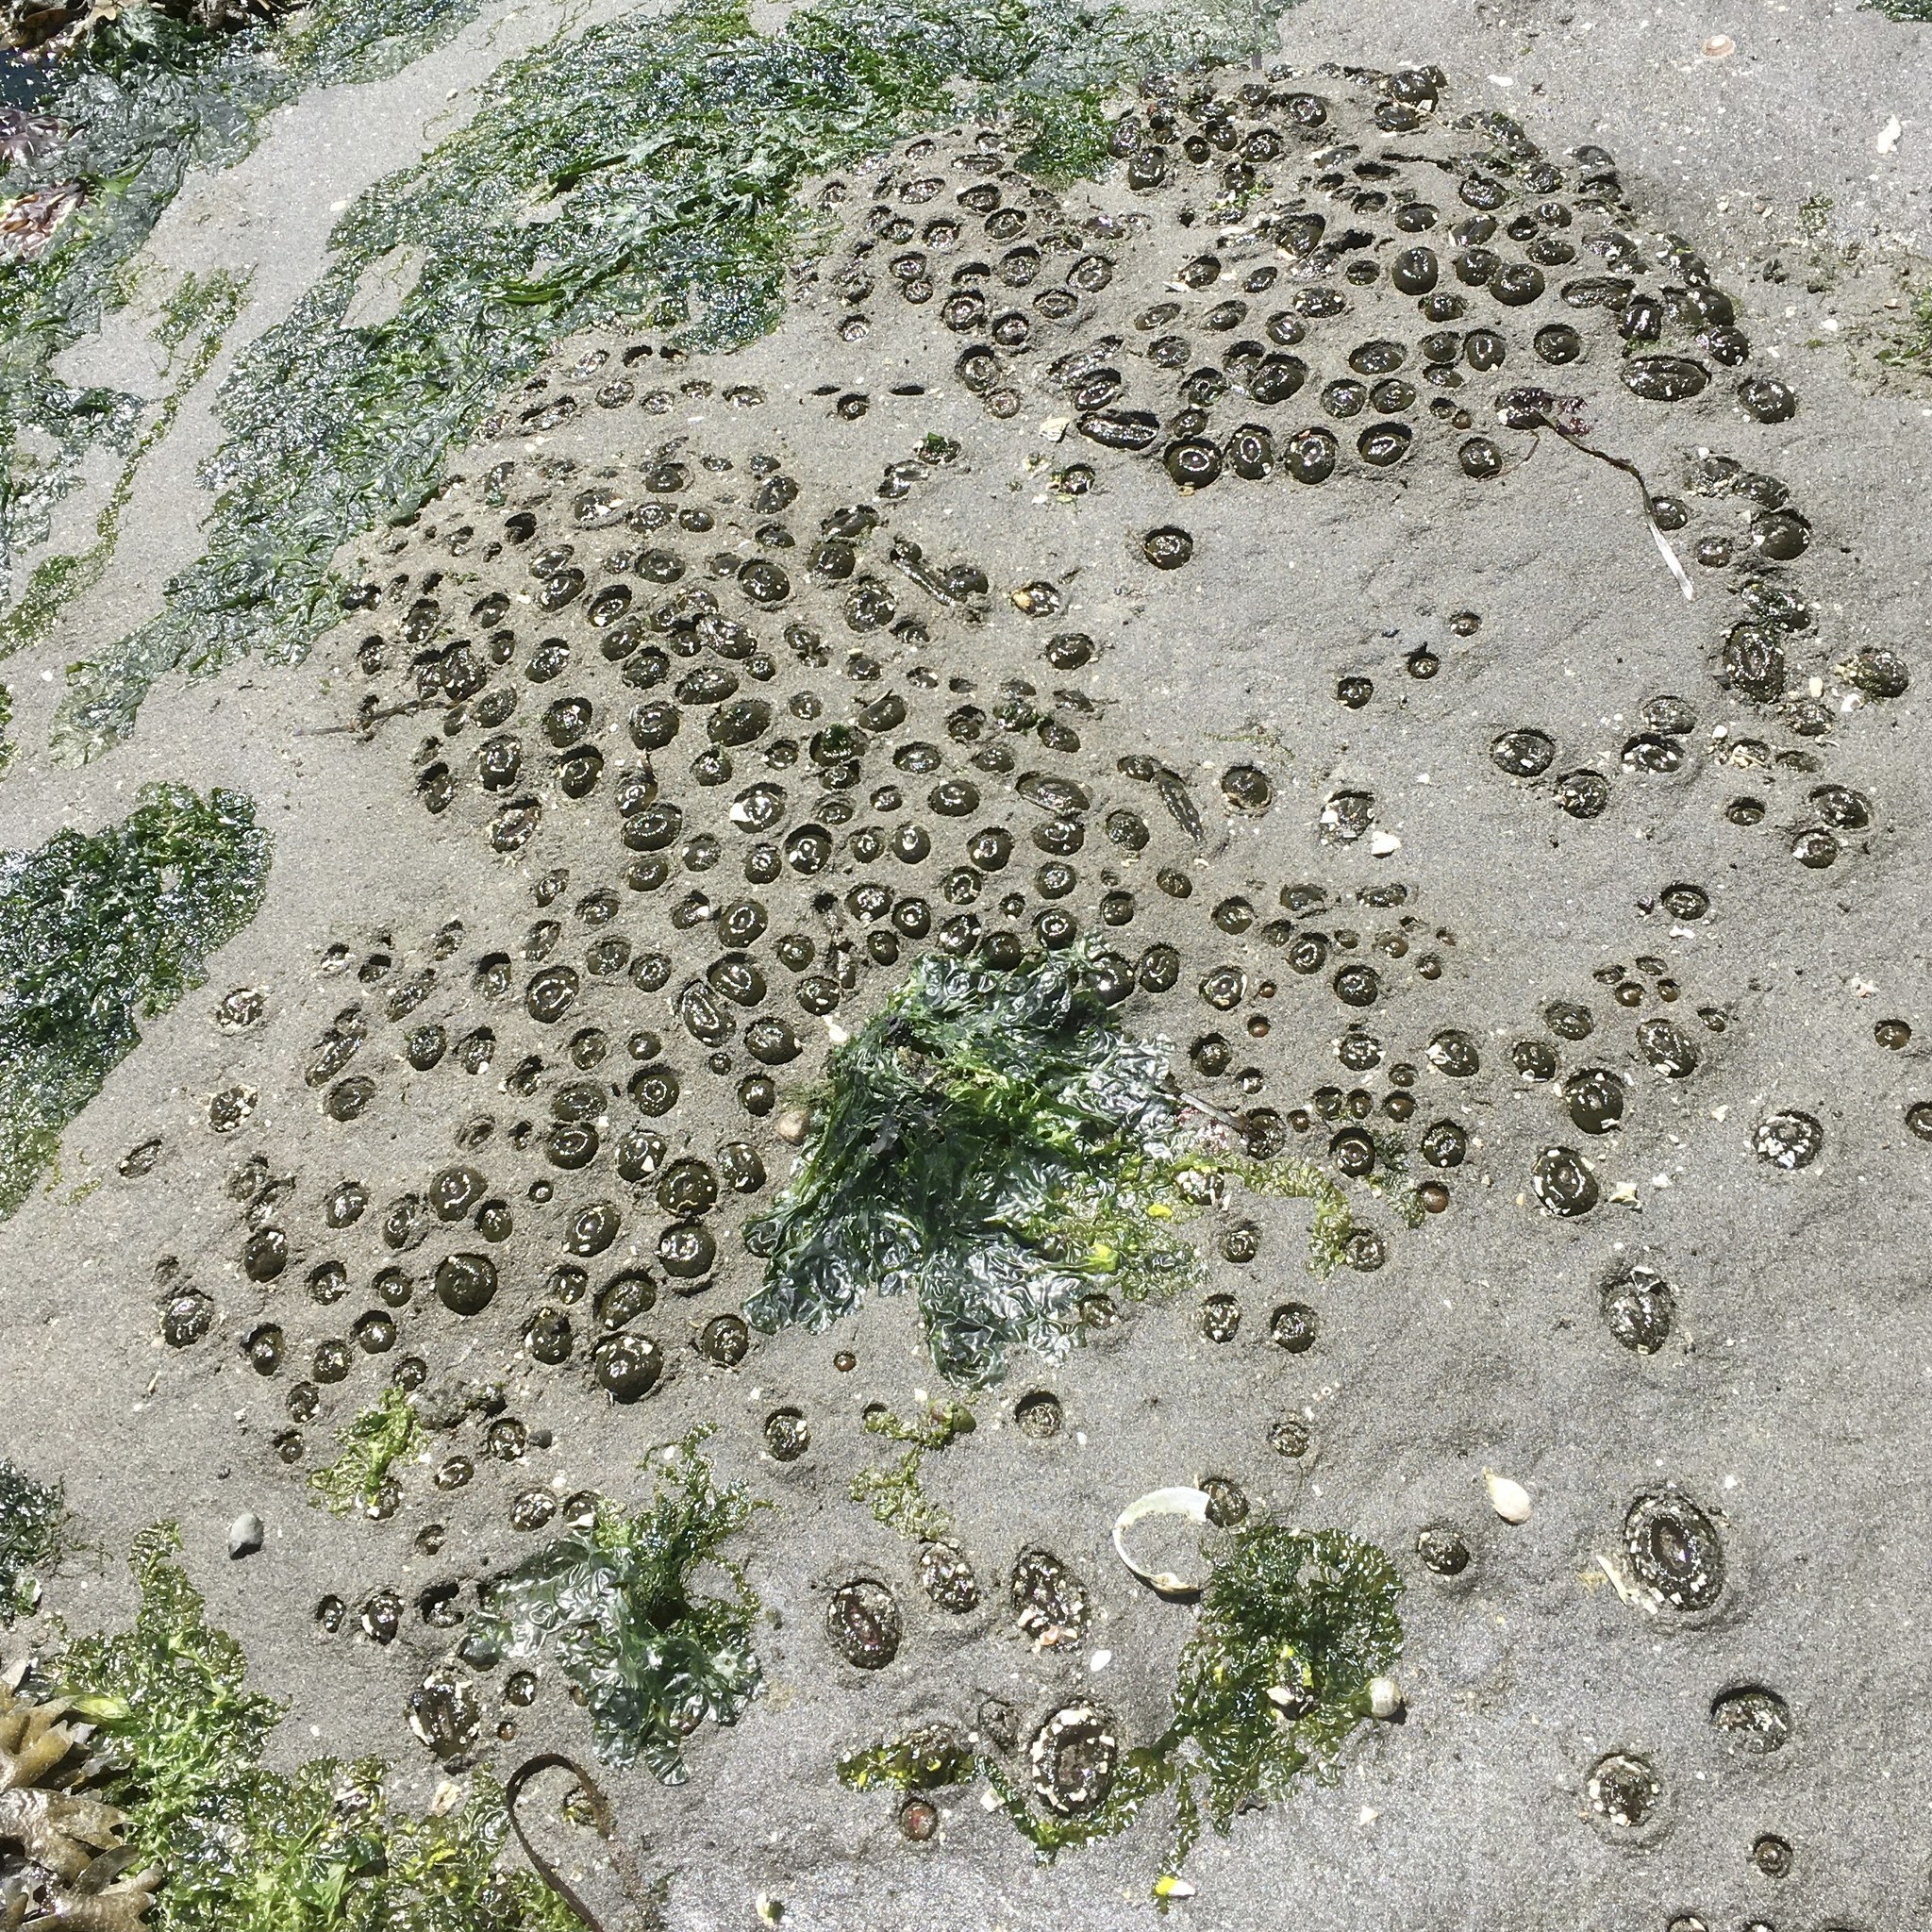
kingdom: Animalia
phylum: Cnidaria
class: Anthozoa
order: Actiniaria
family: Actiniidae
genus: Anthopleura
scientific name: Anthopleura elegantissima
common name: Clonal anemone
